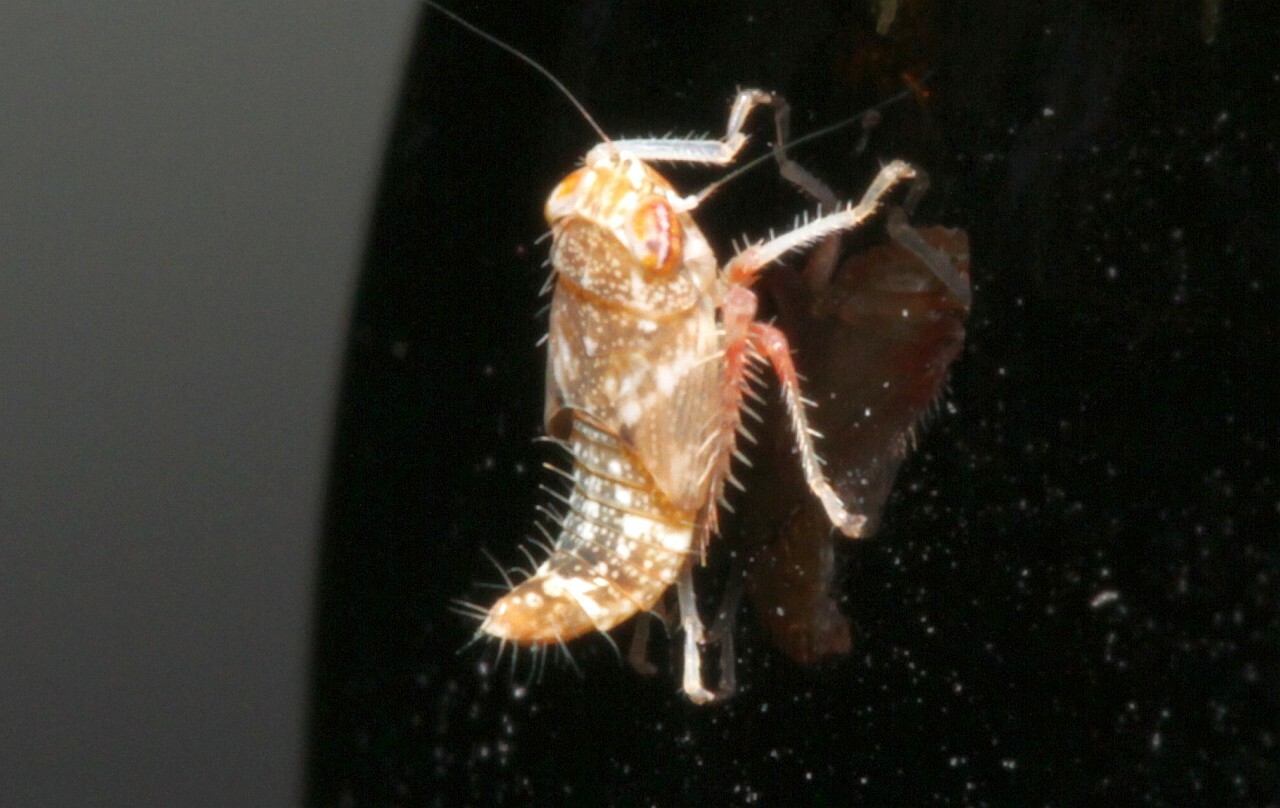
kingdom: Animalia
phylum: Arthropoda
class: Insecta
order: Hemiptera
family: Cicadellidae
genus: Orientus
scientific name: Orientus ishidae
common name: Japanese leafhopper
